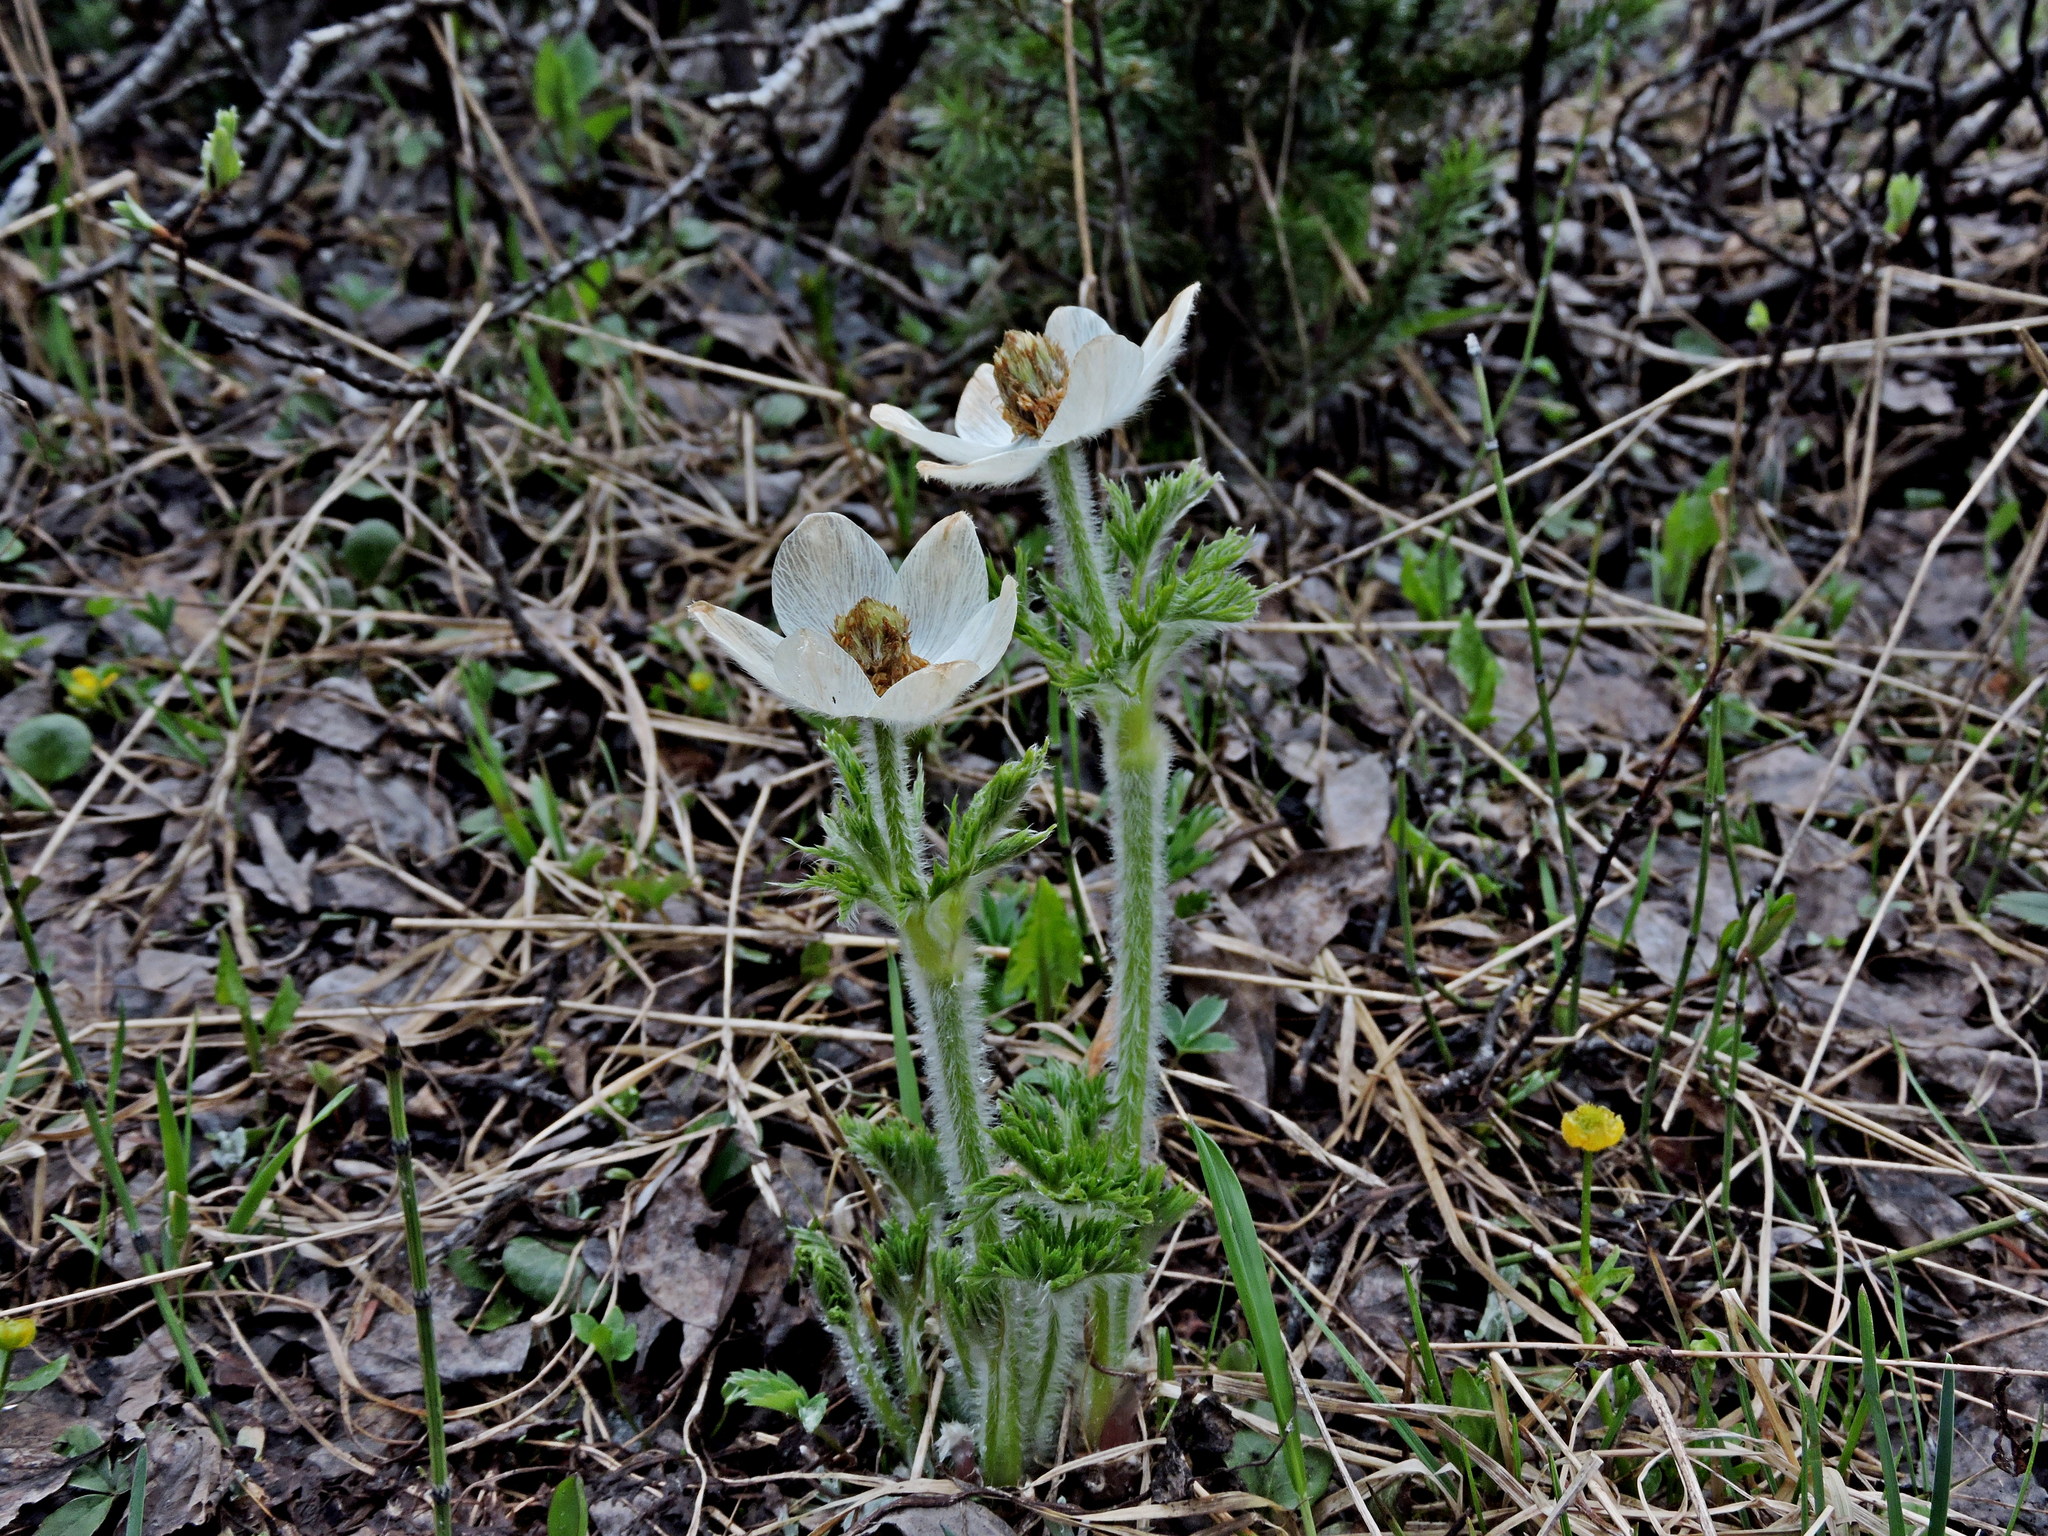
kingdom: Plantae
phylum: Tracheophyta
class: Magnoliopsida
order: Ranunculales
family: Ranunculaceae
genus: Pulsatilla
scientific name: Pulsatilla occidentalis
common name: Mountain pasqueflower
